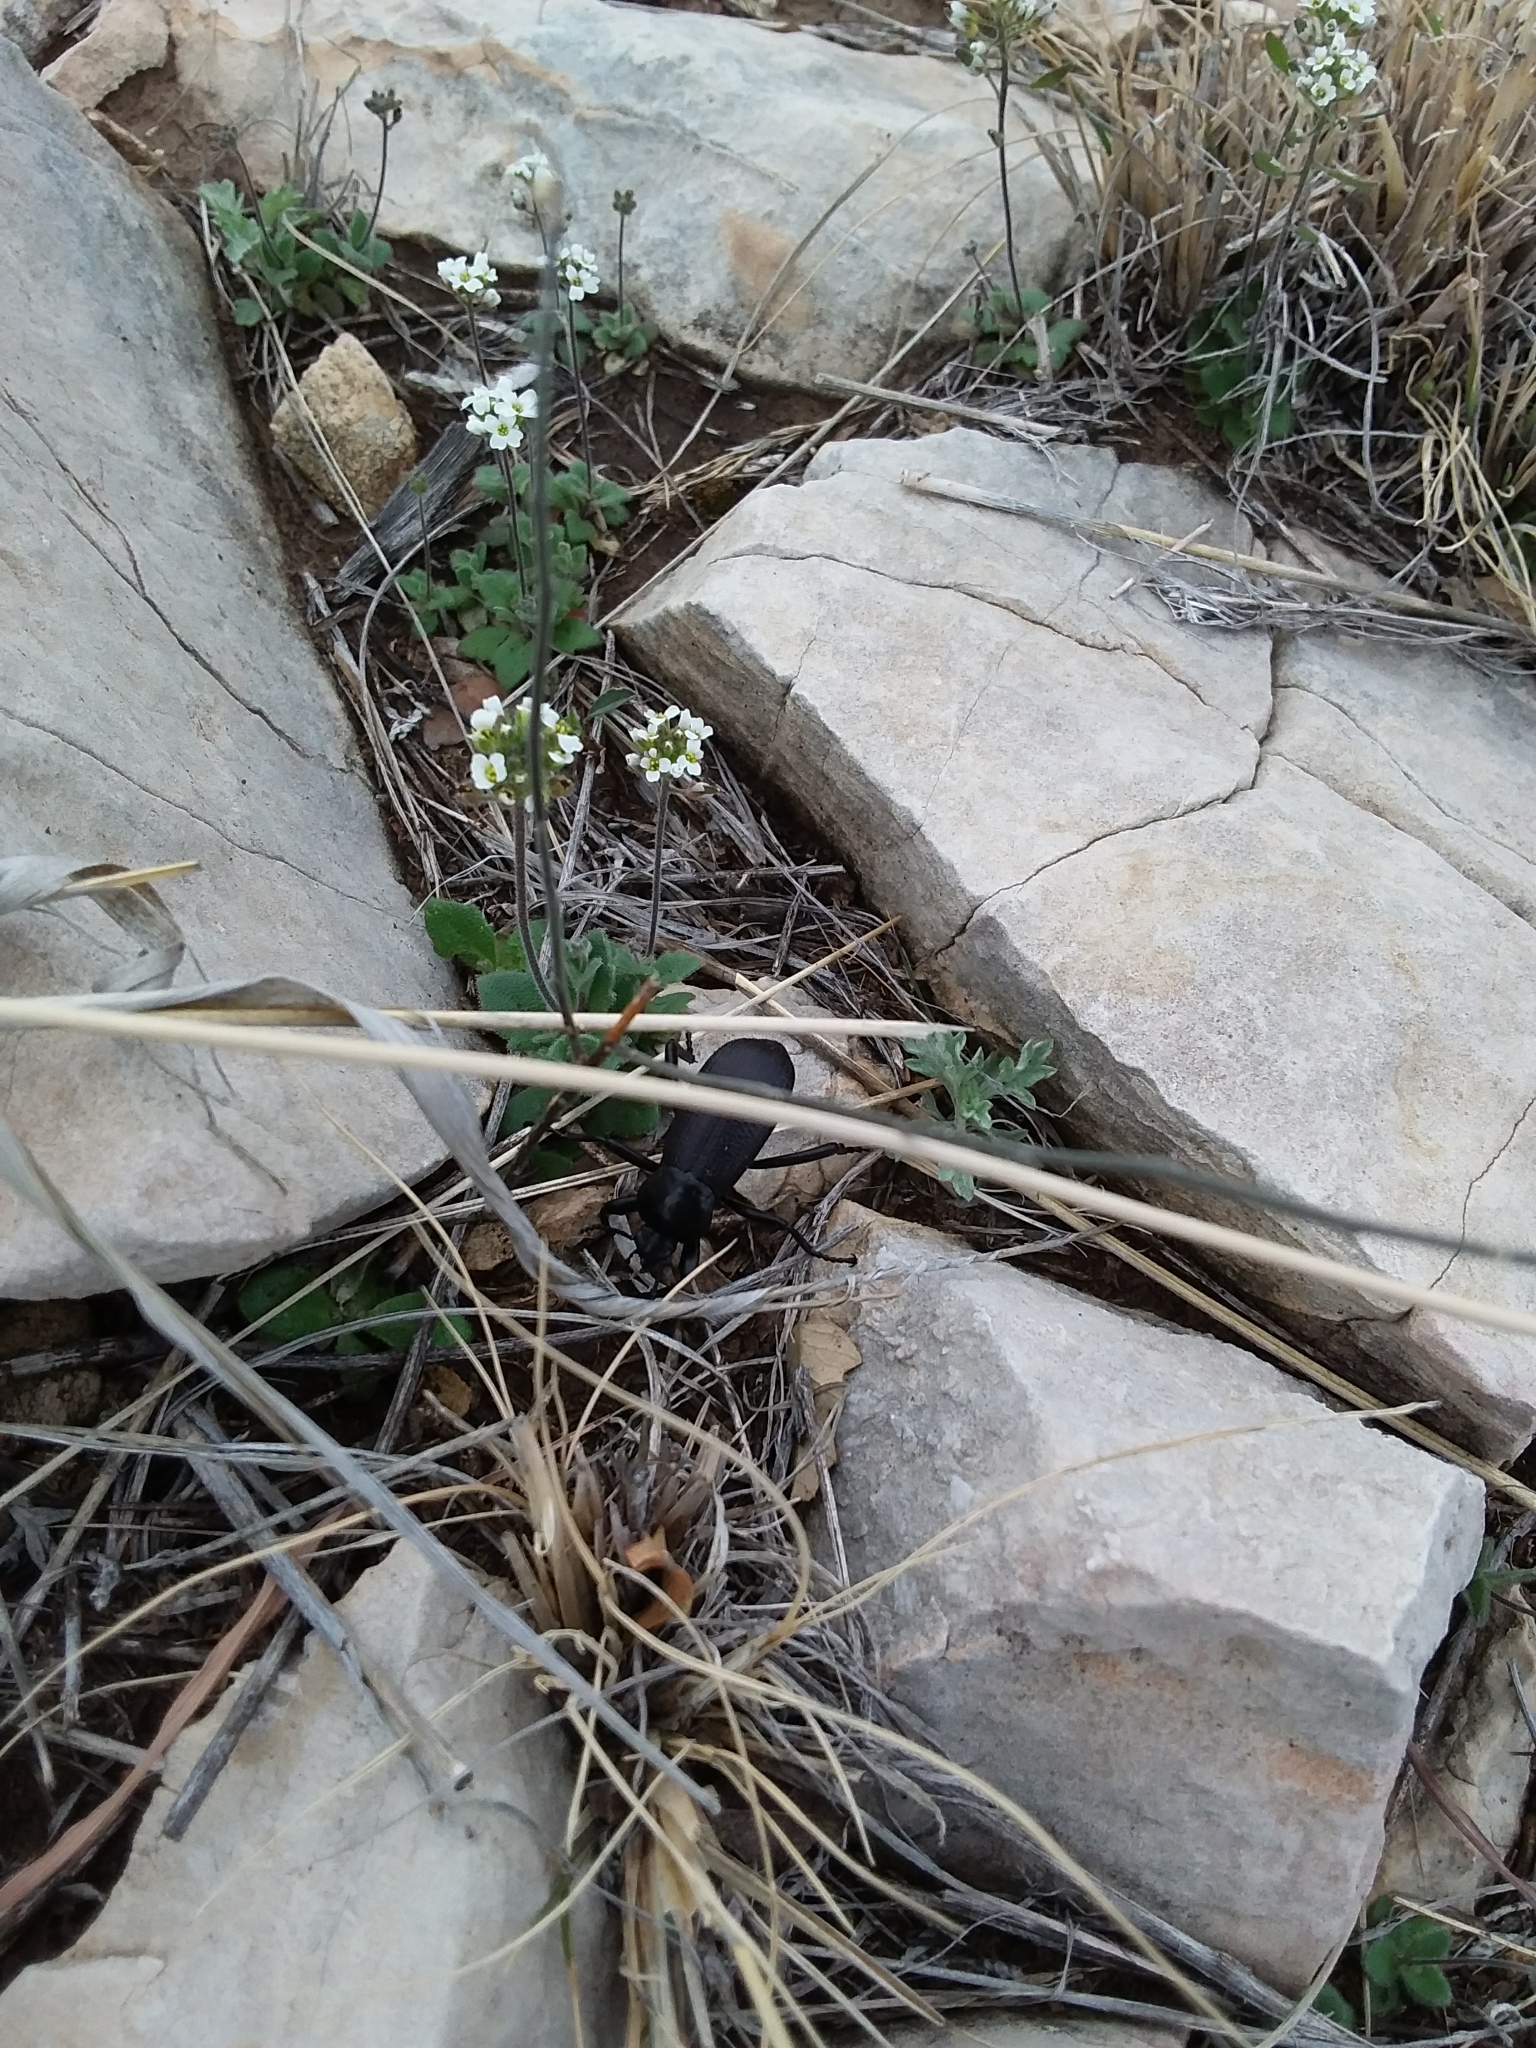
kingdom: Animalia
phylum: Arthropoda
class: Insecta
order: Coleoptera
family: Tenebrionidae
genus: Eleodes
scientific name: Eleodes obscura
